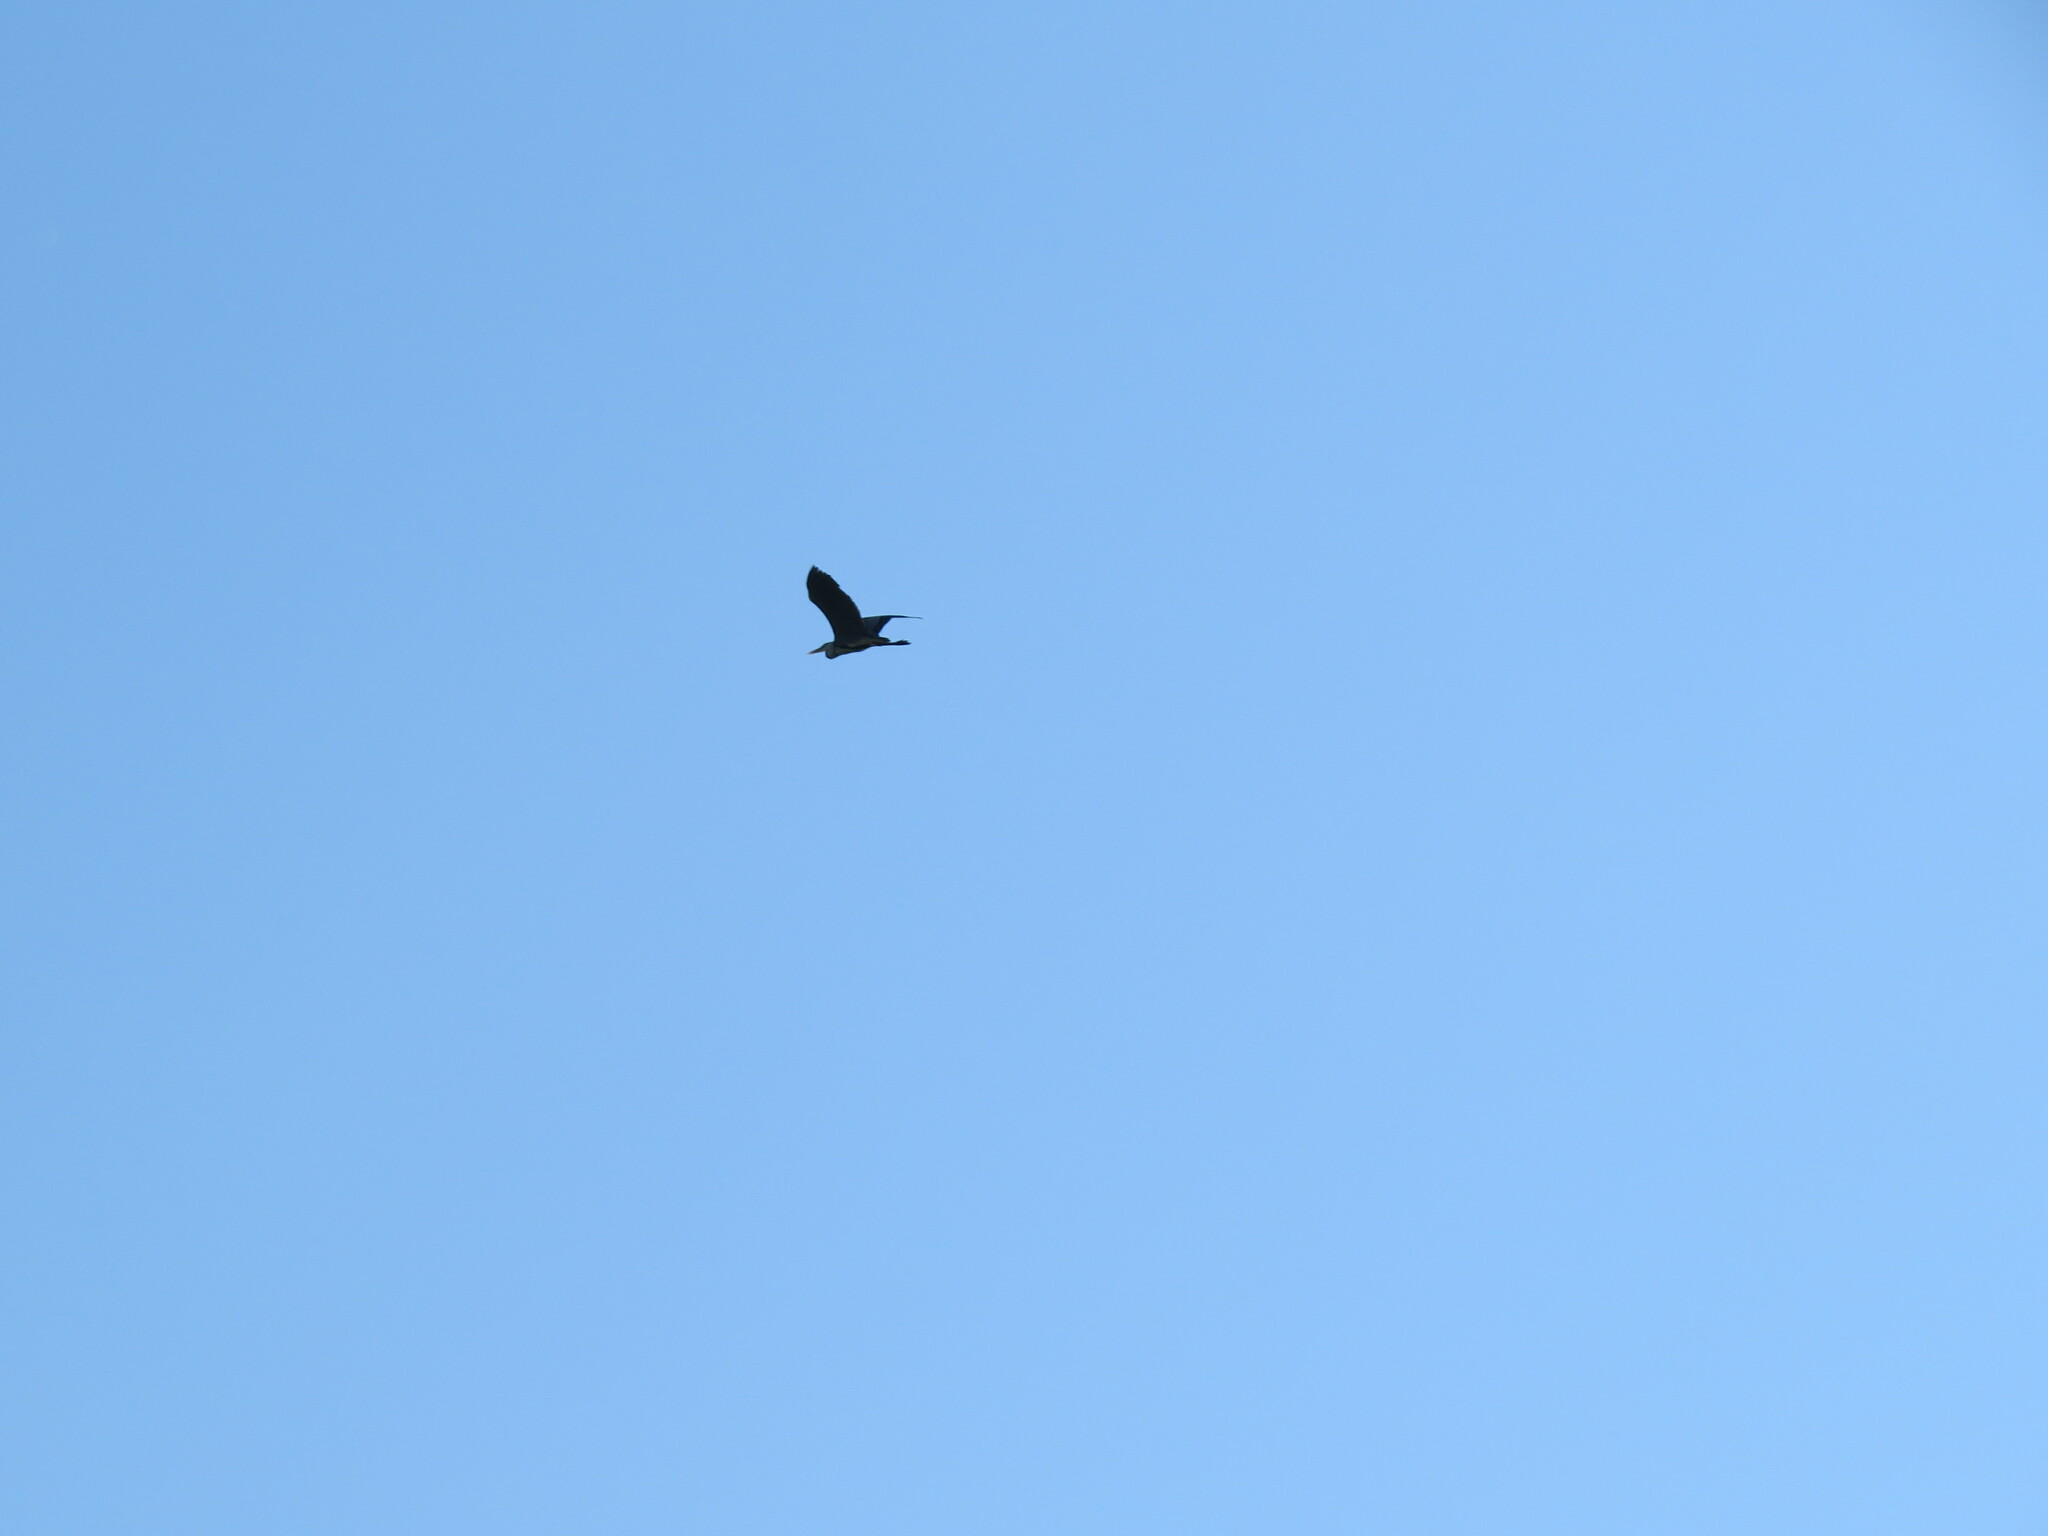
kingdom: Animalia
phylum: Chordata
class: Aves
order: Pelecaniformes
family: Ardeidae
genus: Ardea
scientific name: Ardea cinerea
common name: Grey heron
